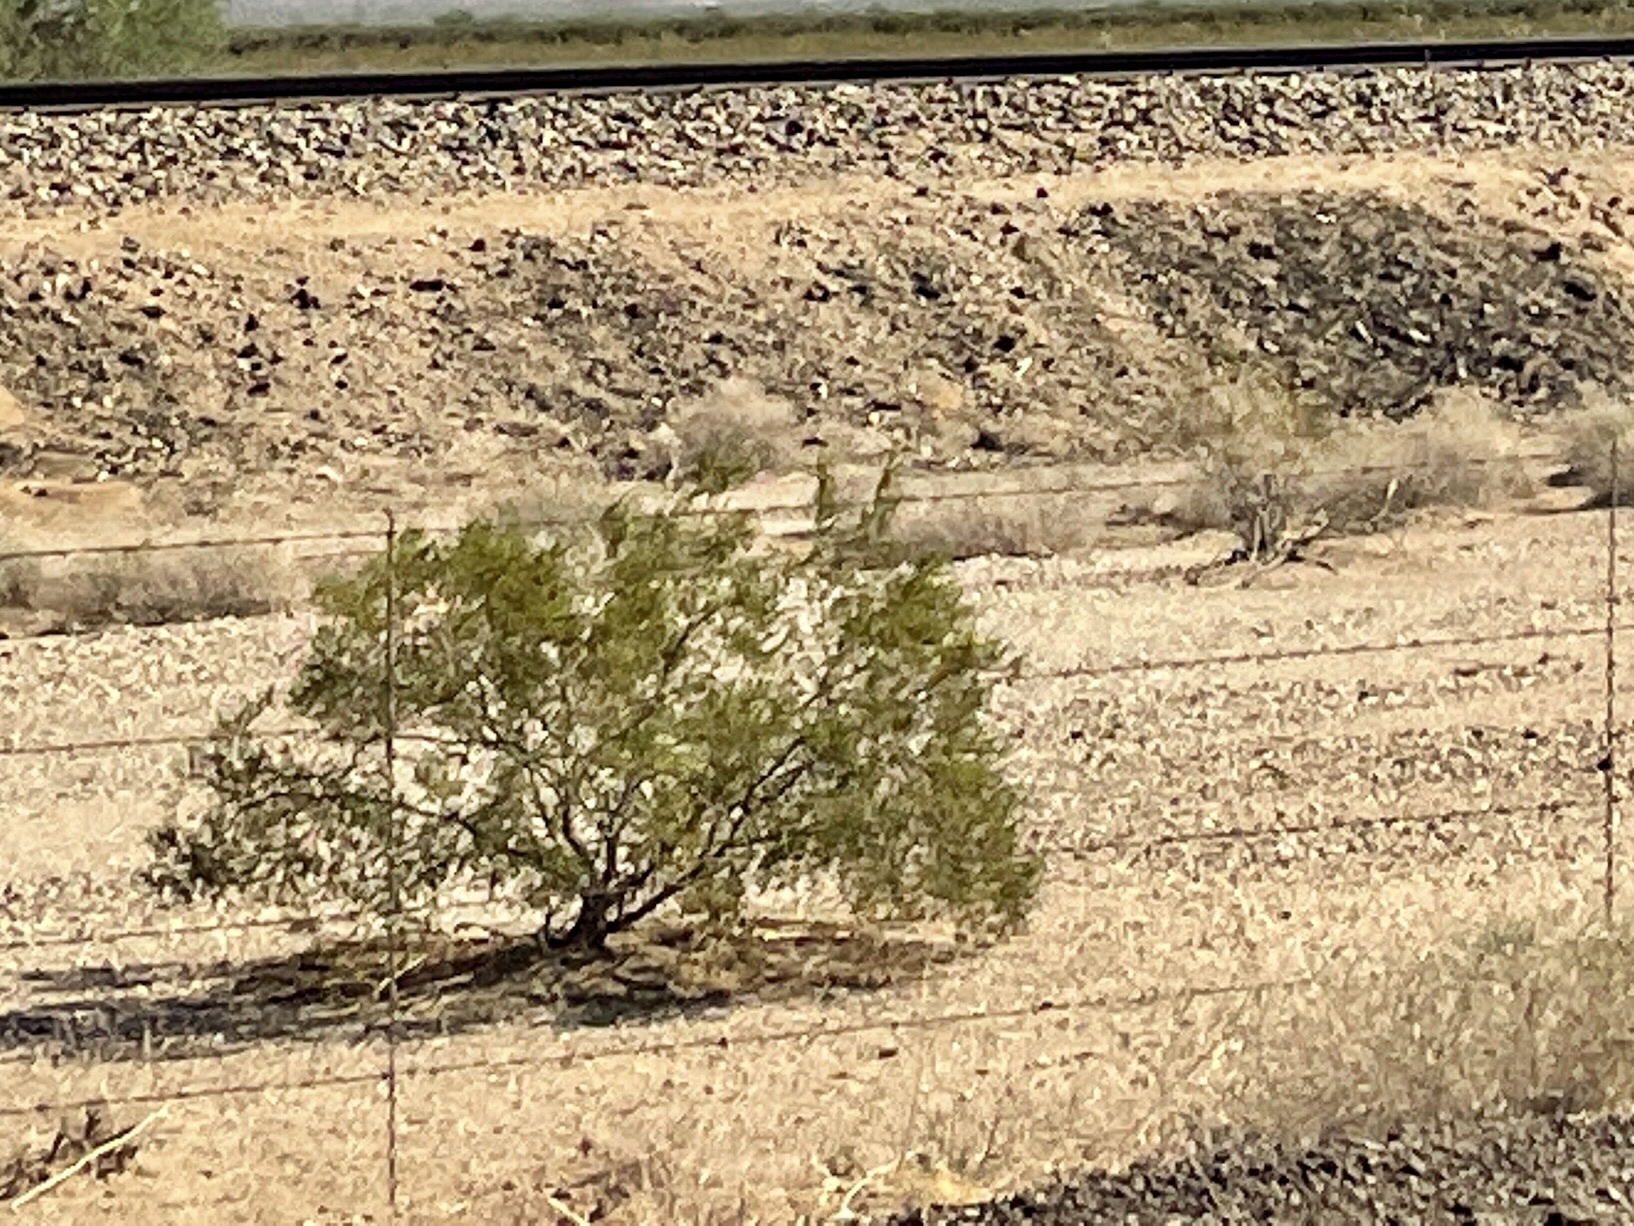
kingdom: Plantae
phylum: Tracheophyta
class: Magnoliopsida
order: Zygophyllales
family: Zygophyllaceae
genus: Larrea
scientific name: Larrea tridentata
